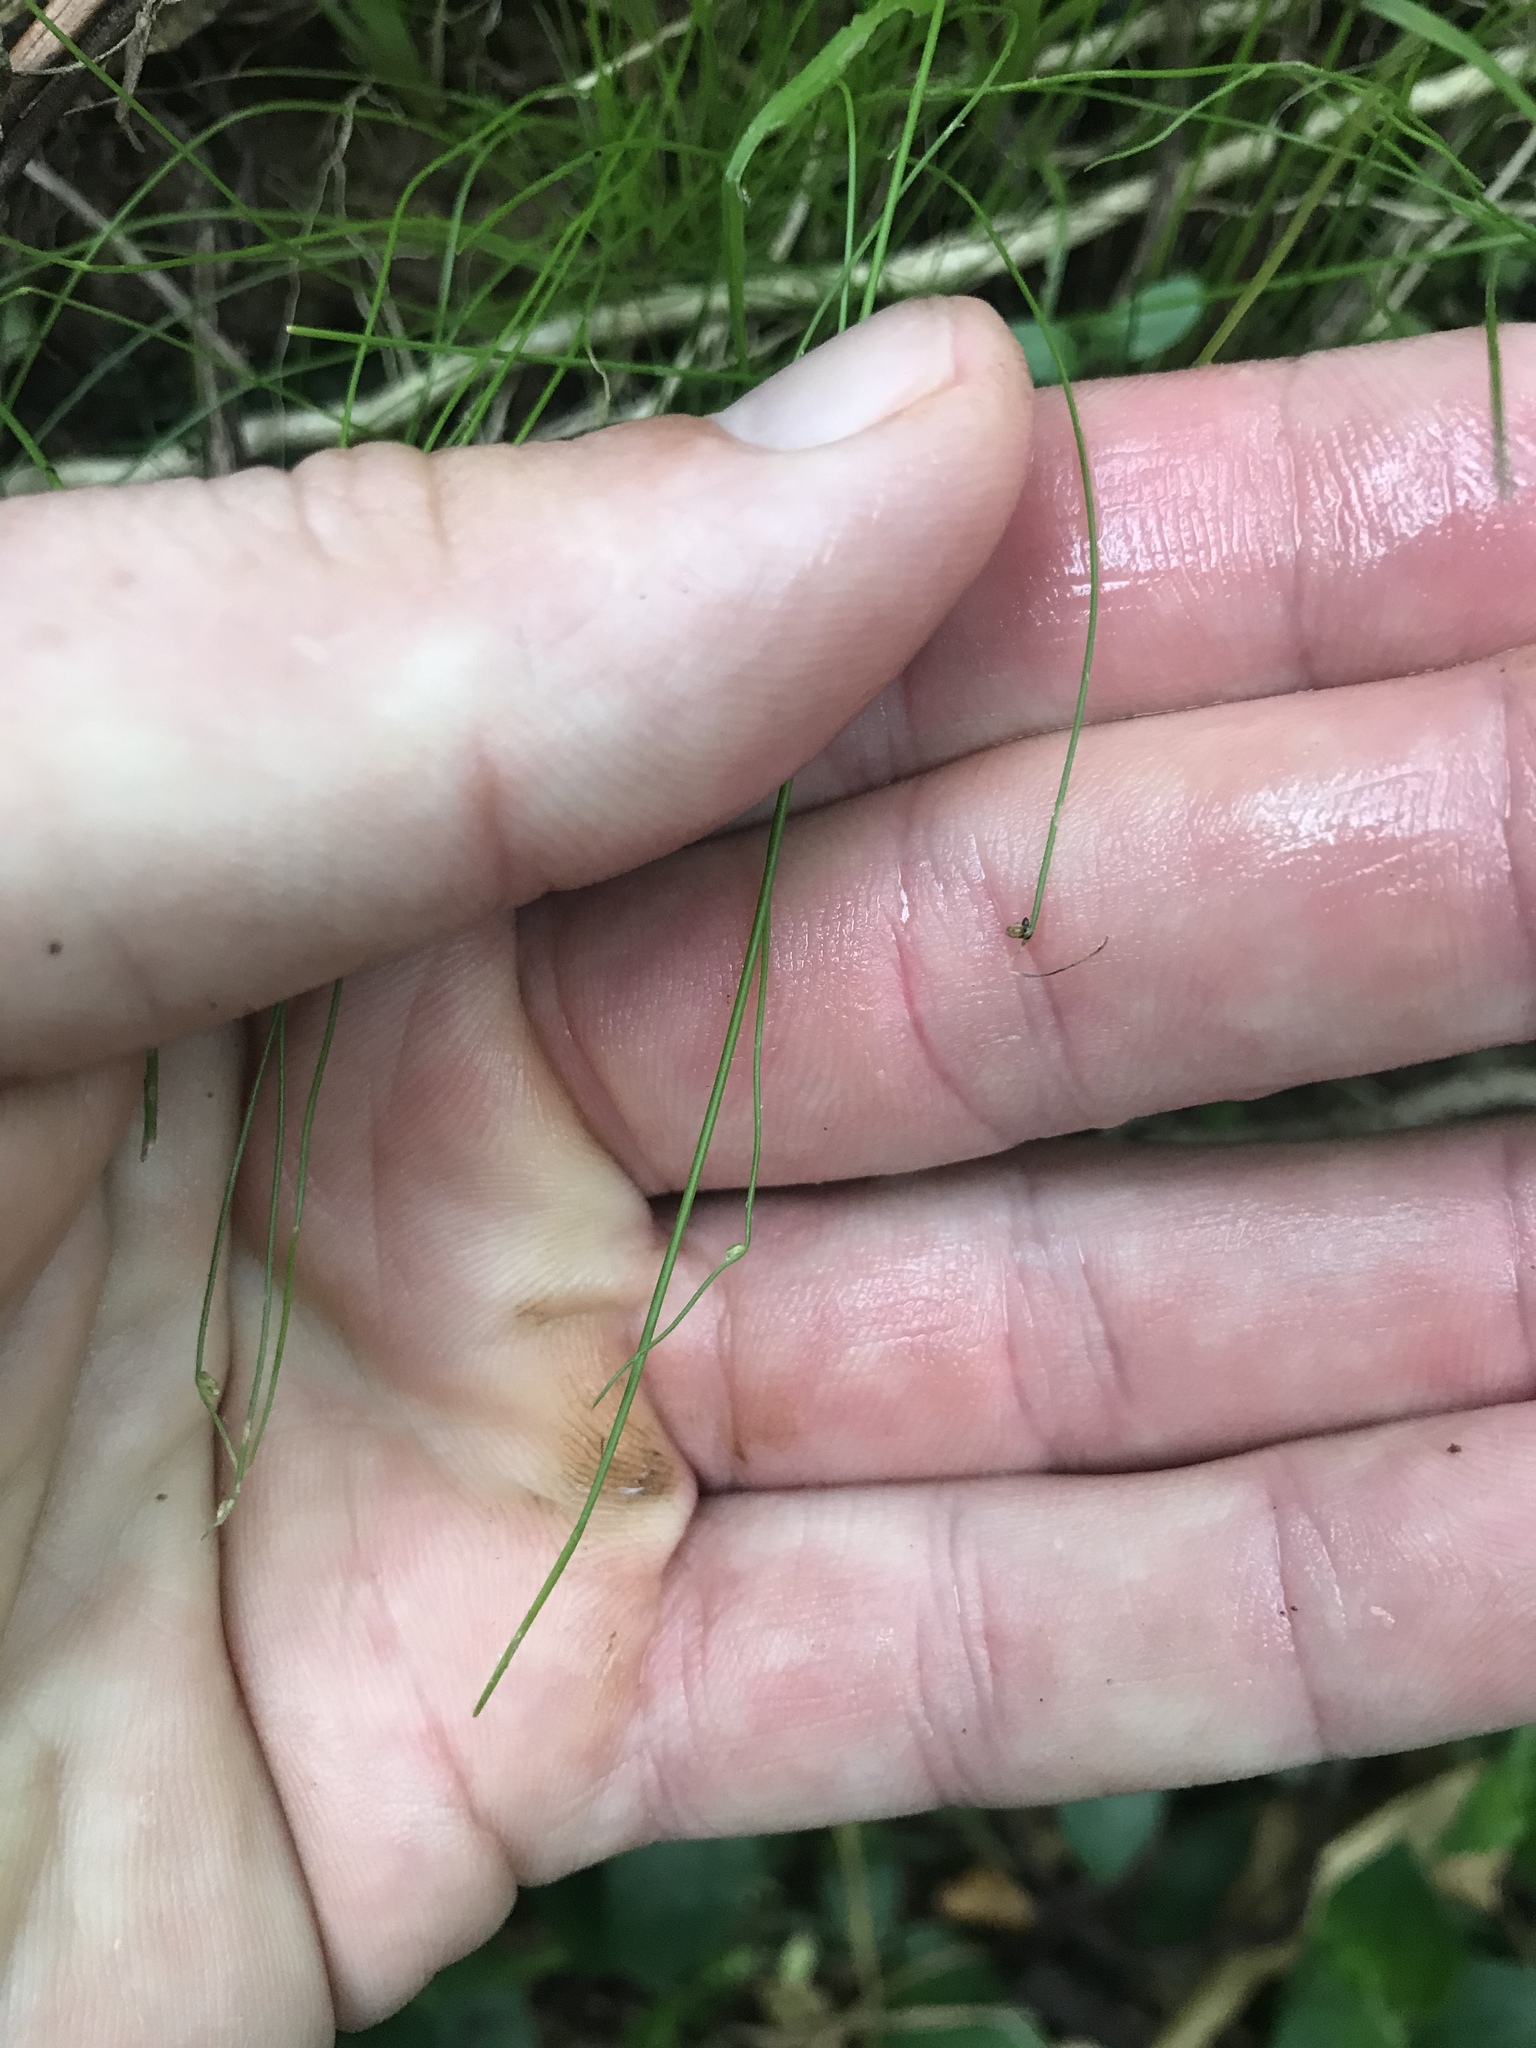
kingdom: Plantae
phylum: Tracheophyta
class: Liliopsida
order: Poales
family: Cyperaceae
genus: Isolepis
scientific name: Isolepis reticularis
